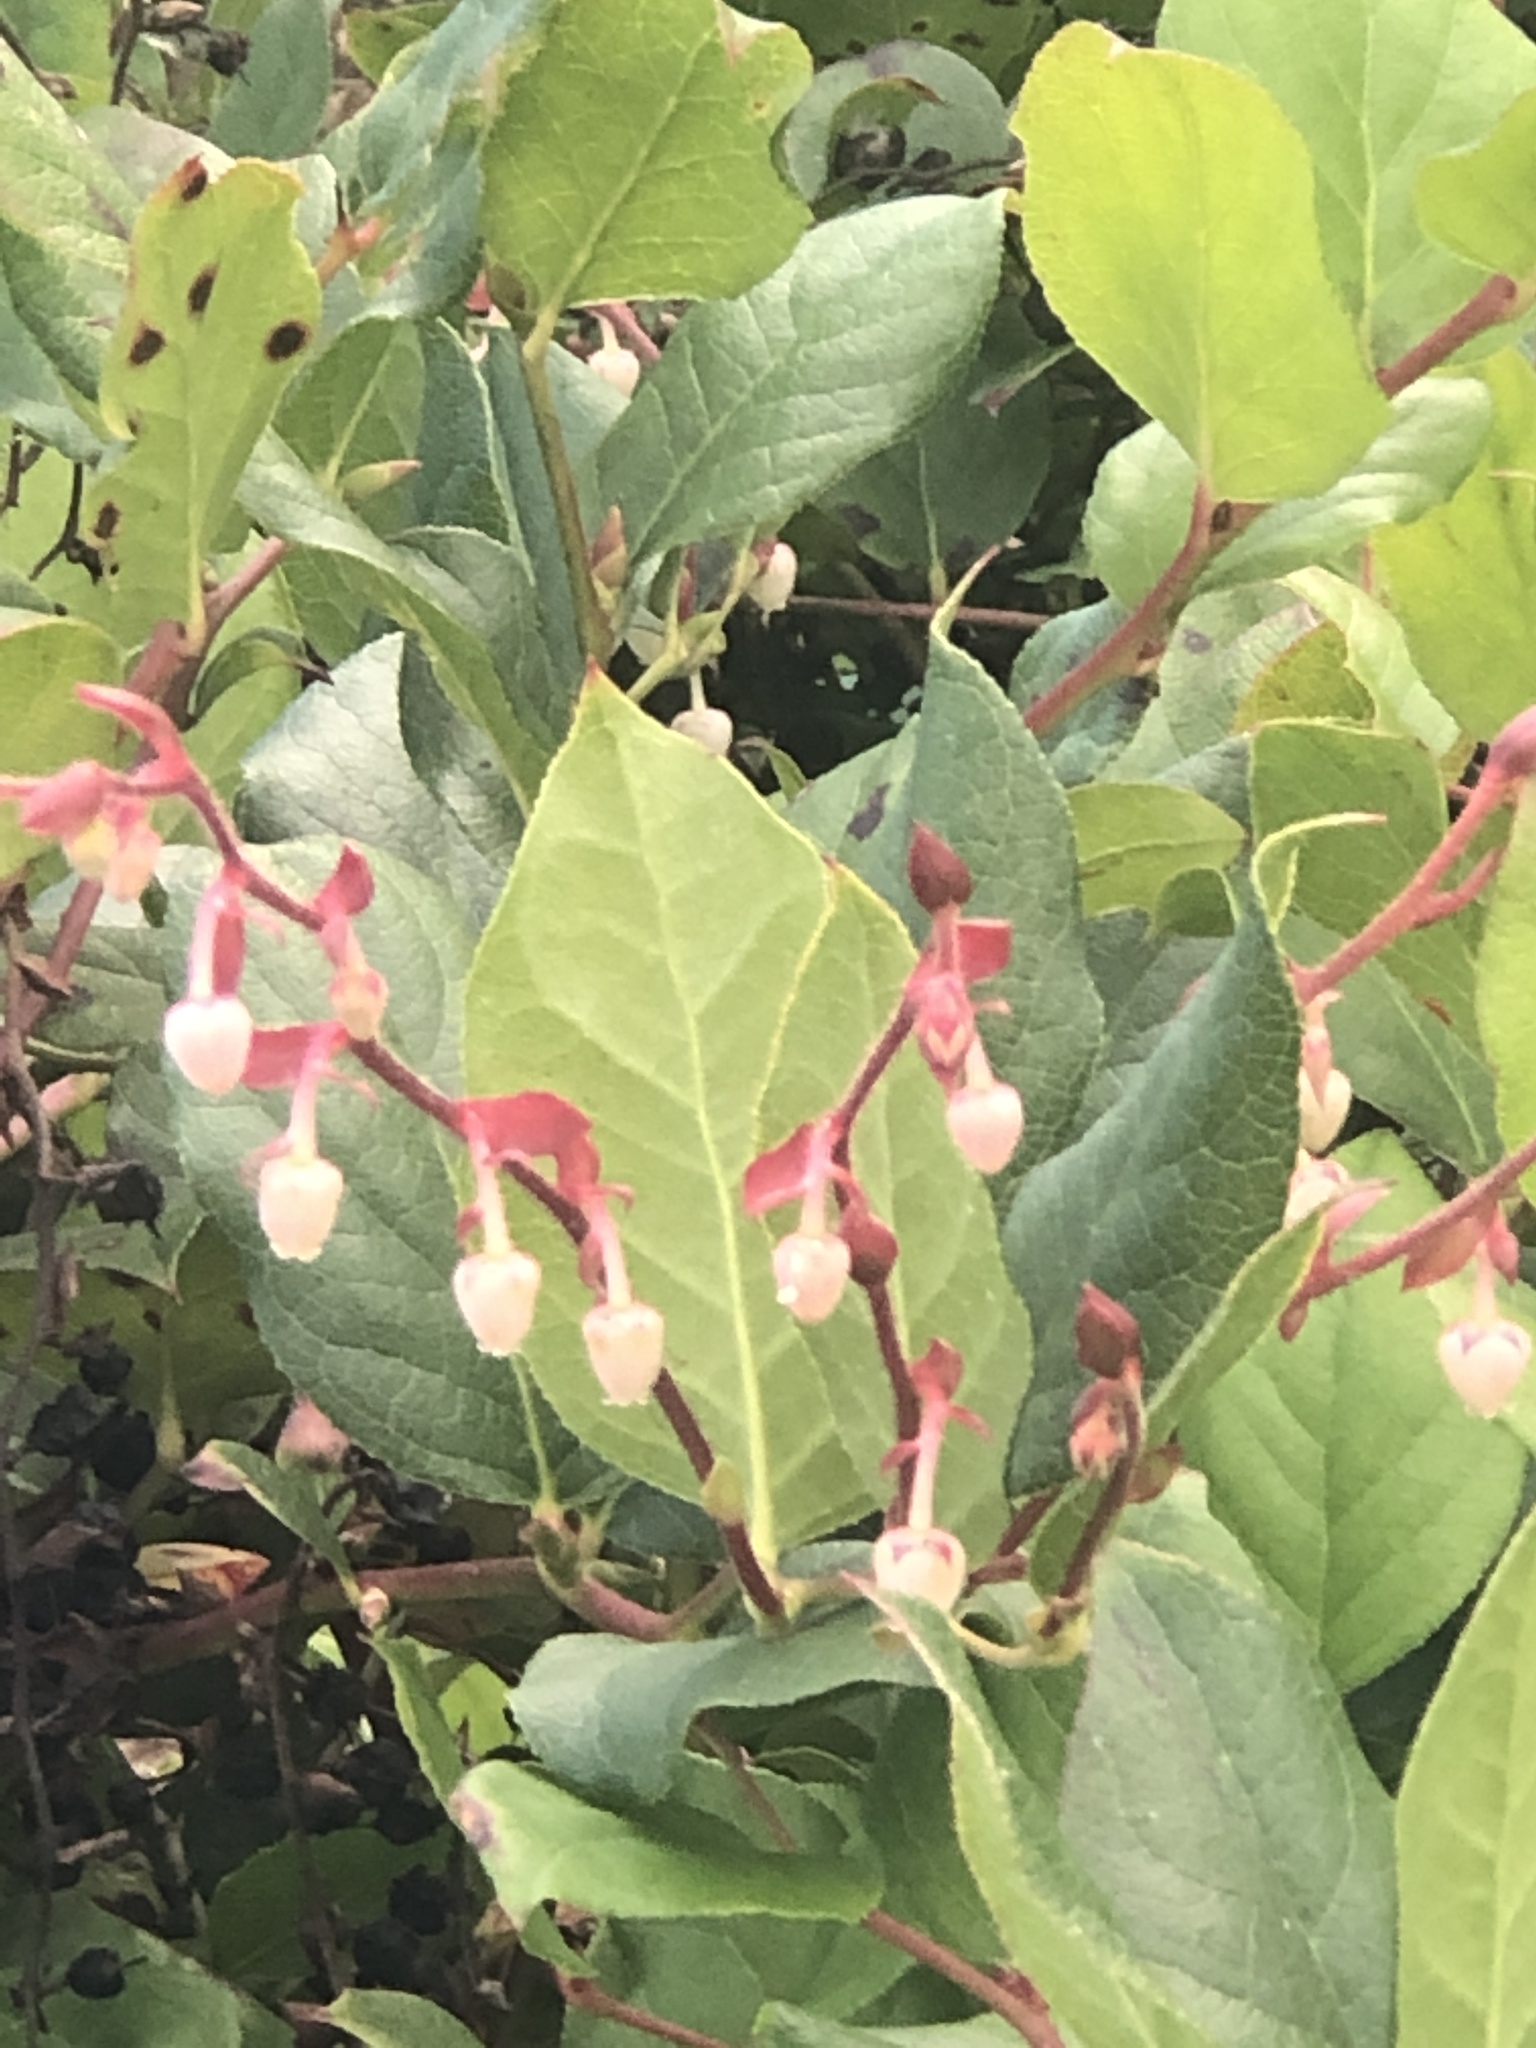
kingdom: Plantae
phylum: Tracheophyta
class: Magnoliopsida
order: Ericales
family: Ericaceae
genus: Gaultheria
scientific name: Gaultheria shallon
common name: Shallon
